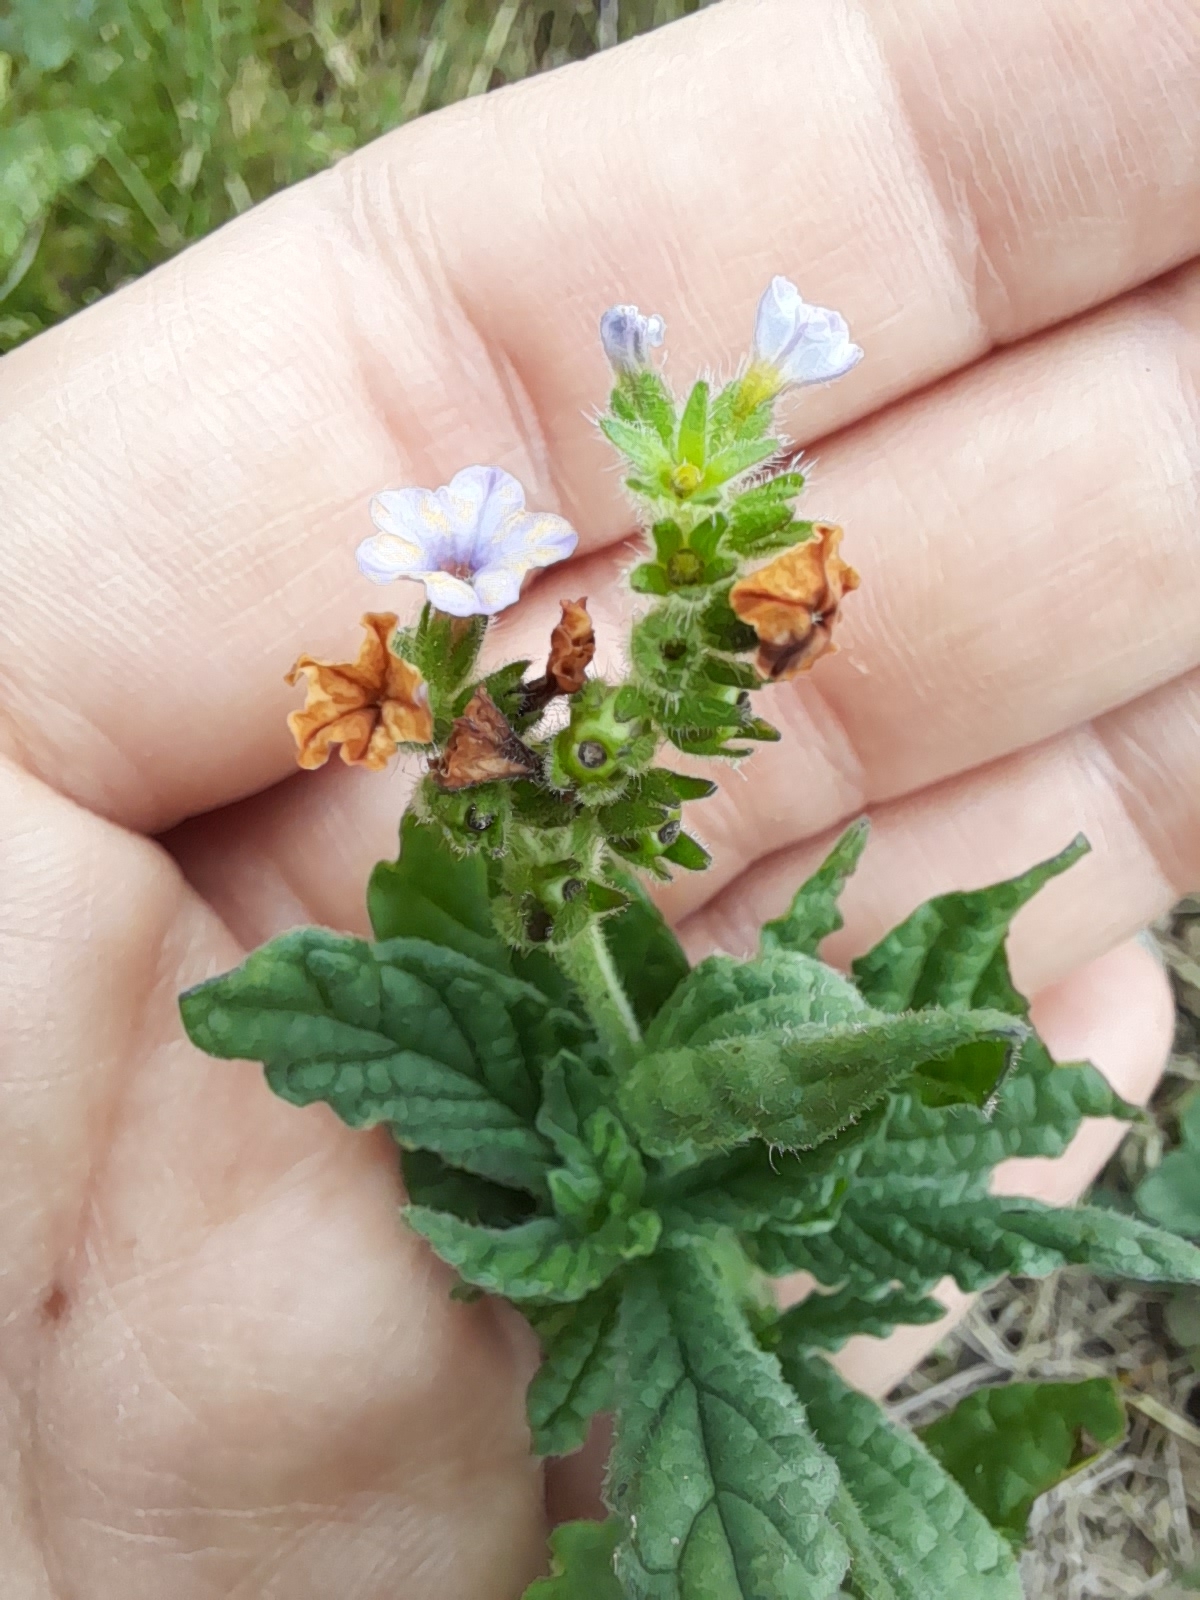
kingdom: Plantae
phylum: Tracheophyta
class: Magnoliopsida
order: Boraginales
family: Heliotropiaceae
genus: Heliotropium
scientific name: Heliotropium amplexicaule
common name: Clasping heliotrope
